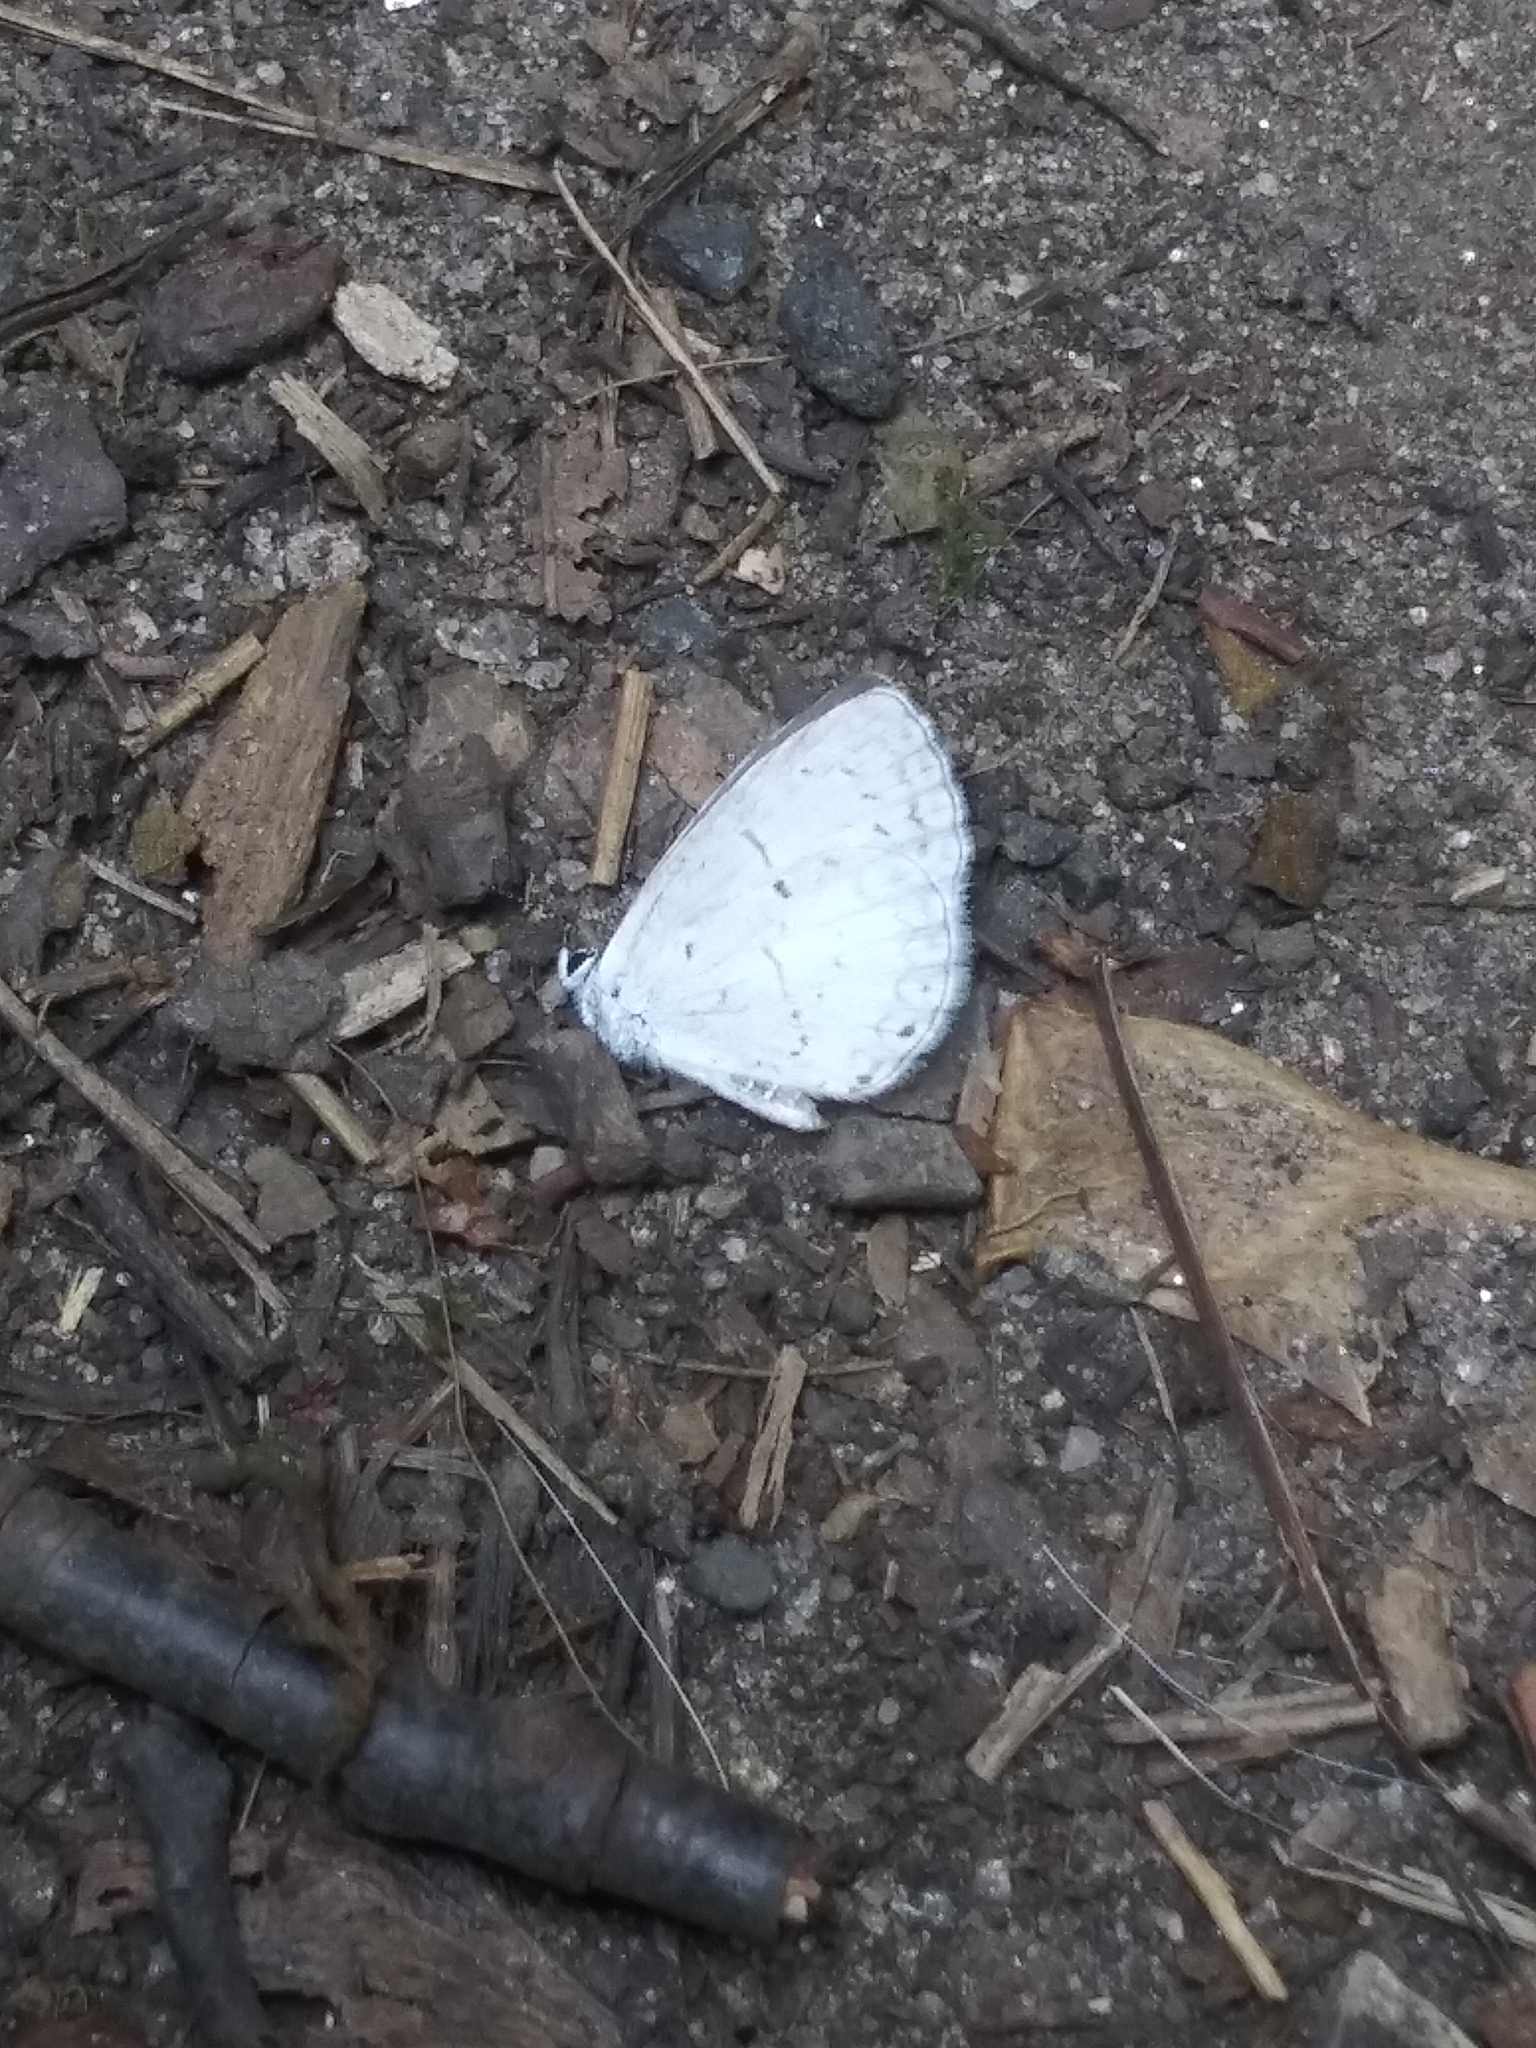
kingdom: Animalia
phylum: Arthropoda
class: Insecta
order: Lepidoptera
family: Lycaenidae
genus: Cyaniris
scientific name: Cyaniris neglecta
